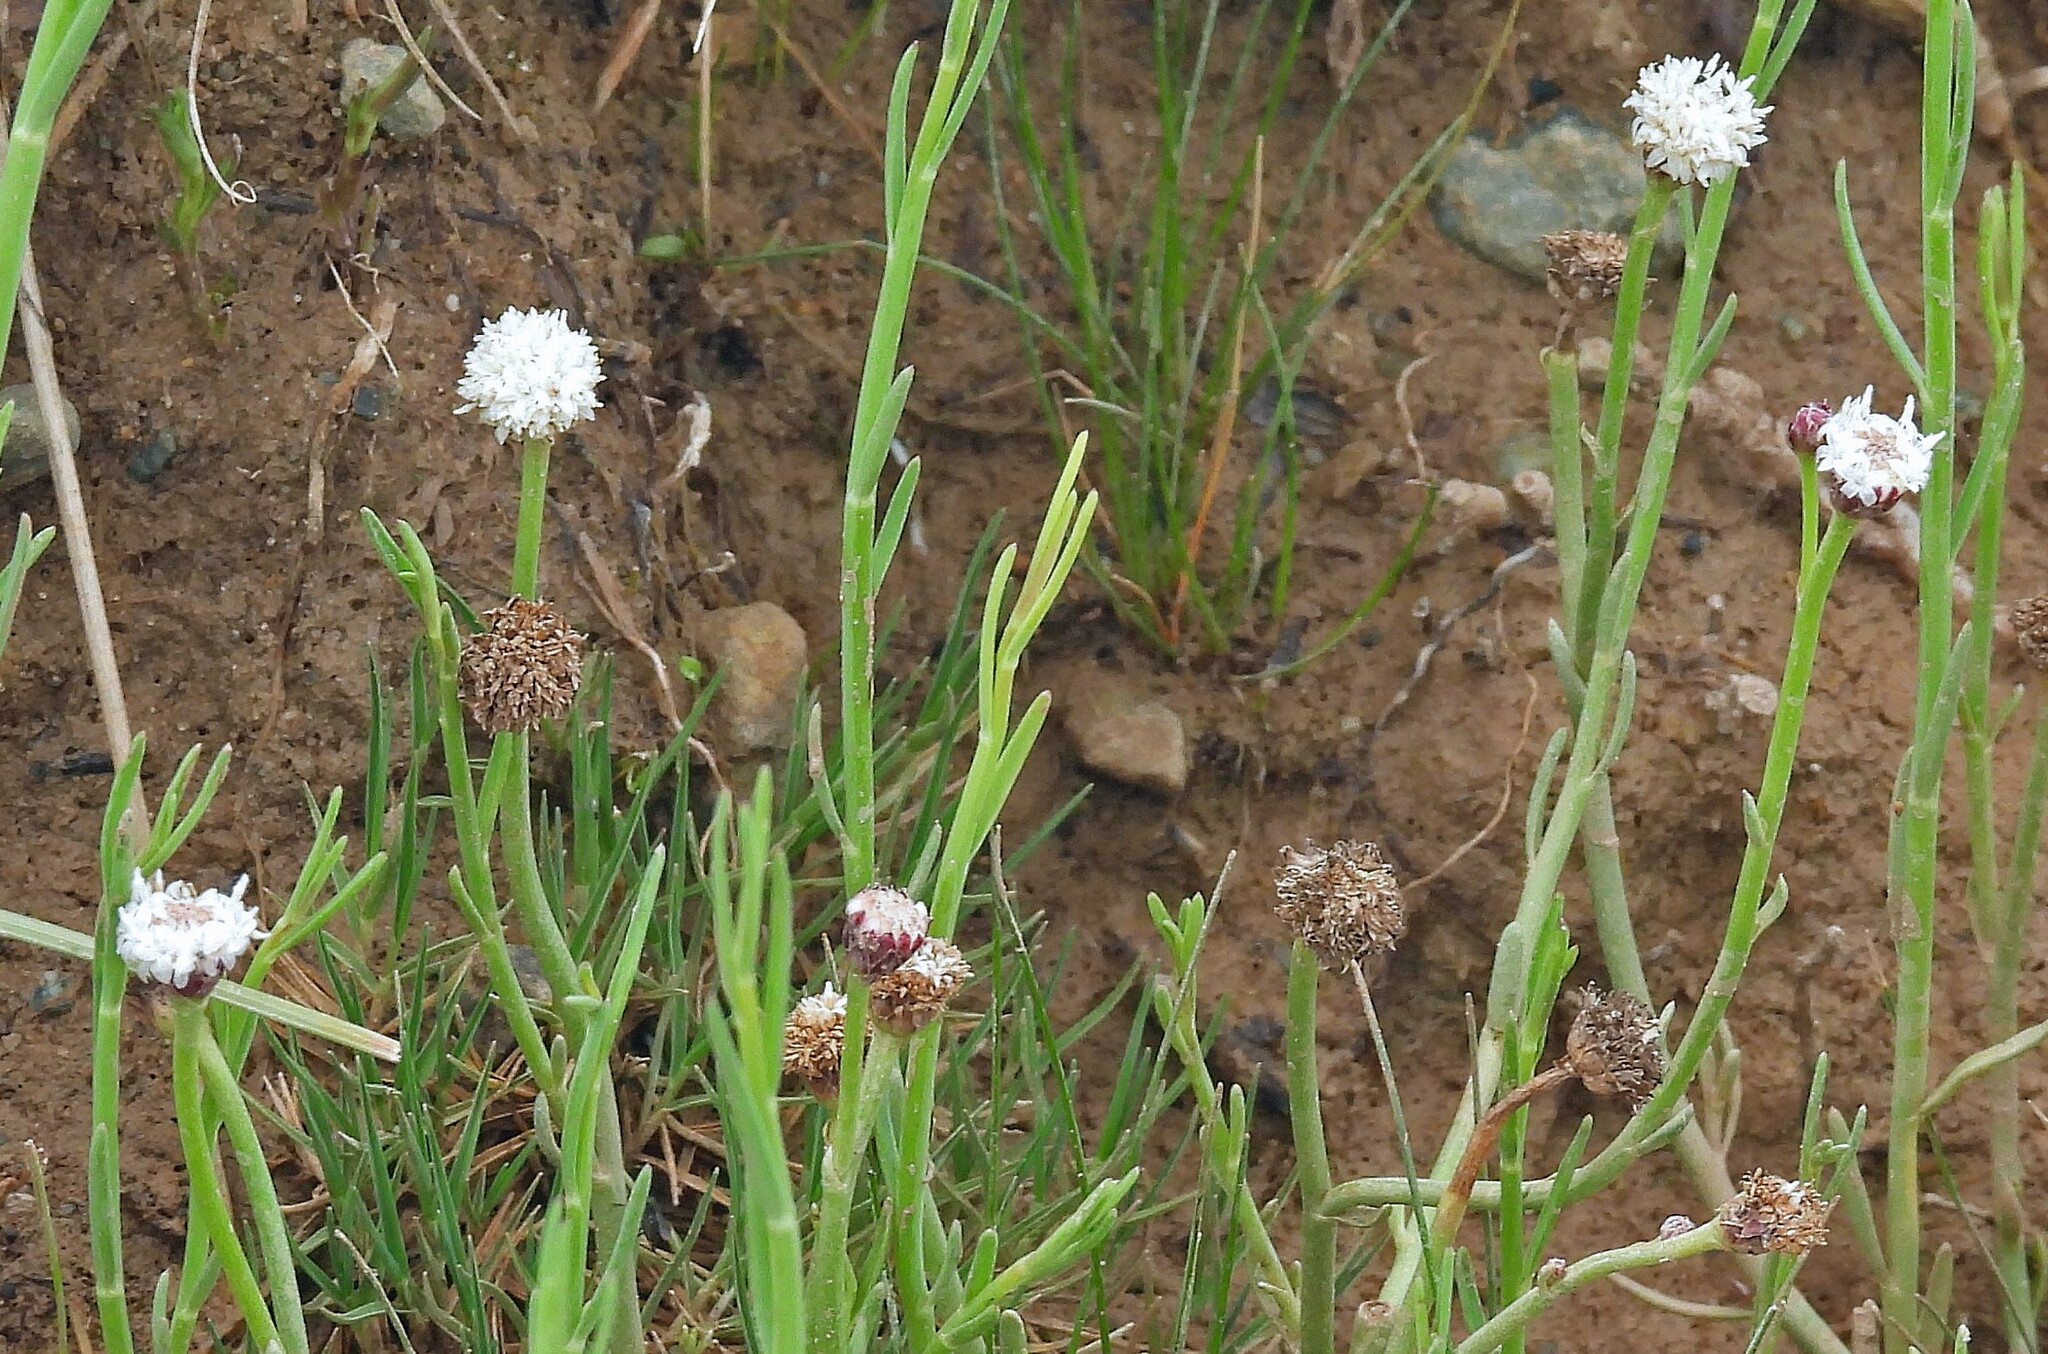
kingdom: Plantae
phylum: Tracheophyta
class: Magnoliopsida
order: Asterales
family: Asteraceae
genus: Baccharis
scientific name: Baccharis juncea
